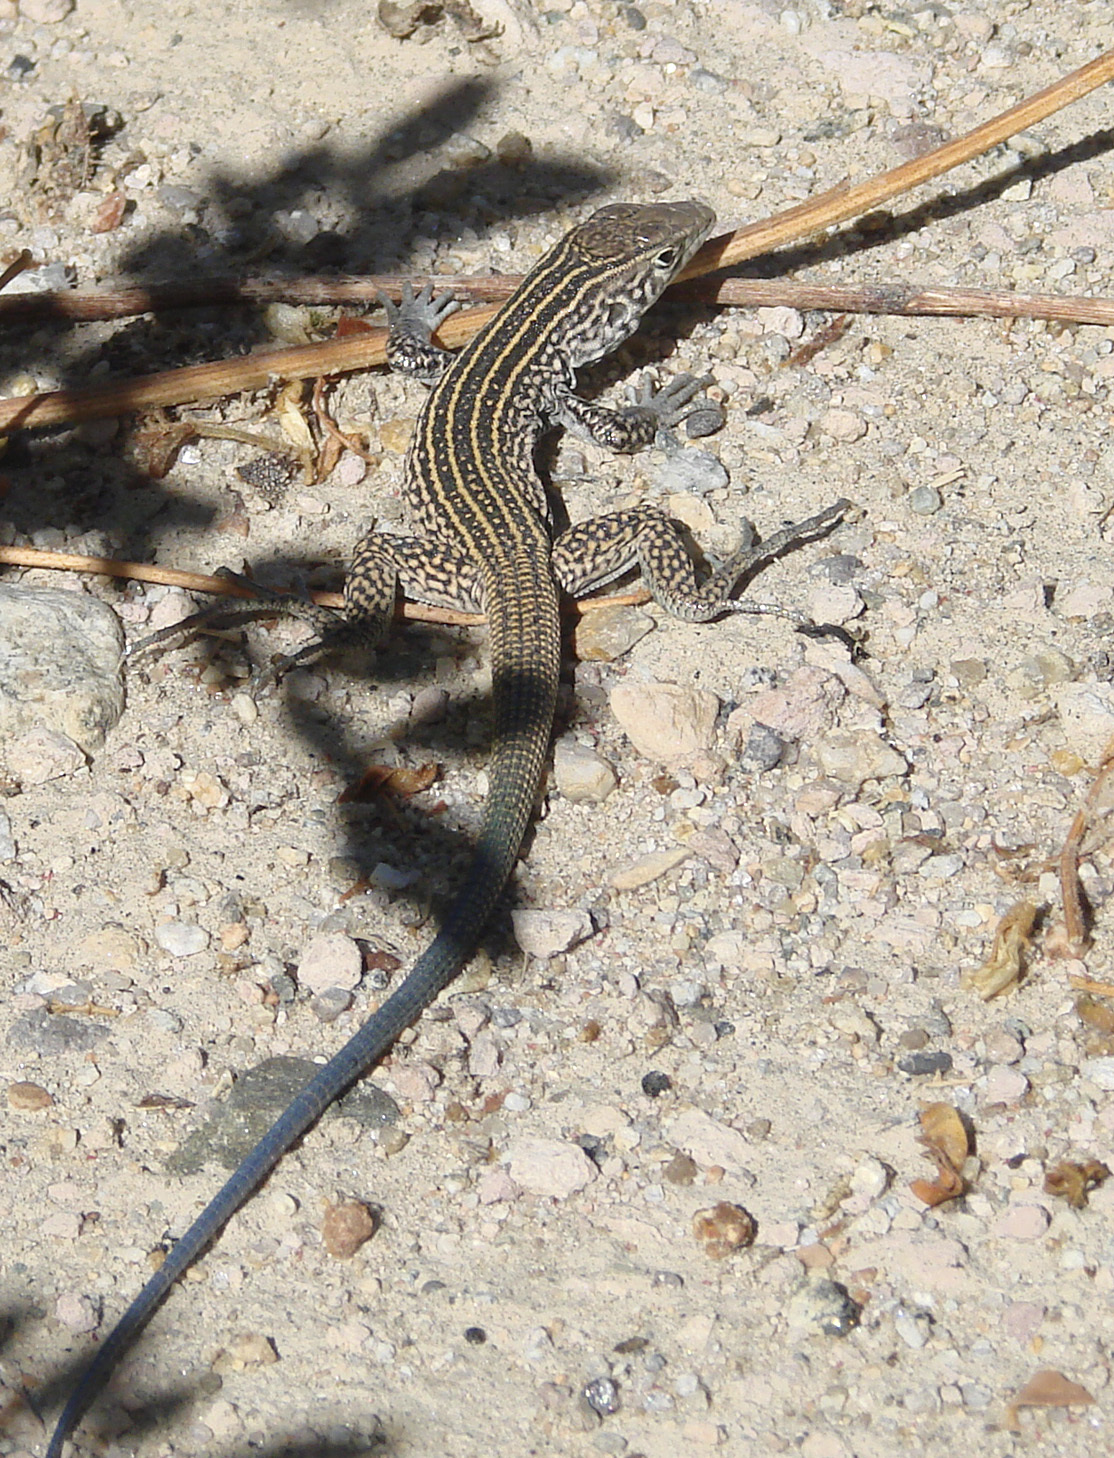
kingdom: Animalia
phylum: Chordata
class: Squamata
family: Teiidae
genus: Aspidoscelis
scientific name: Aspidoscelis tigris
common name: Tiger whiptail
